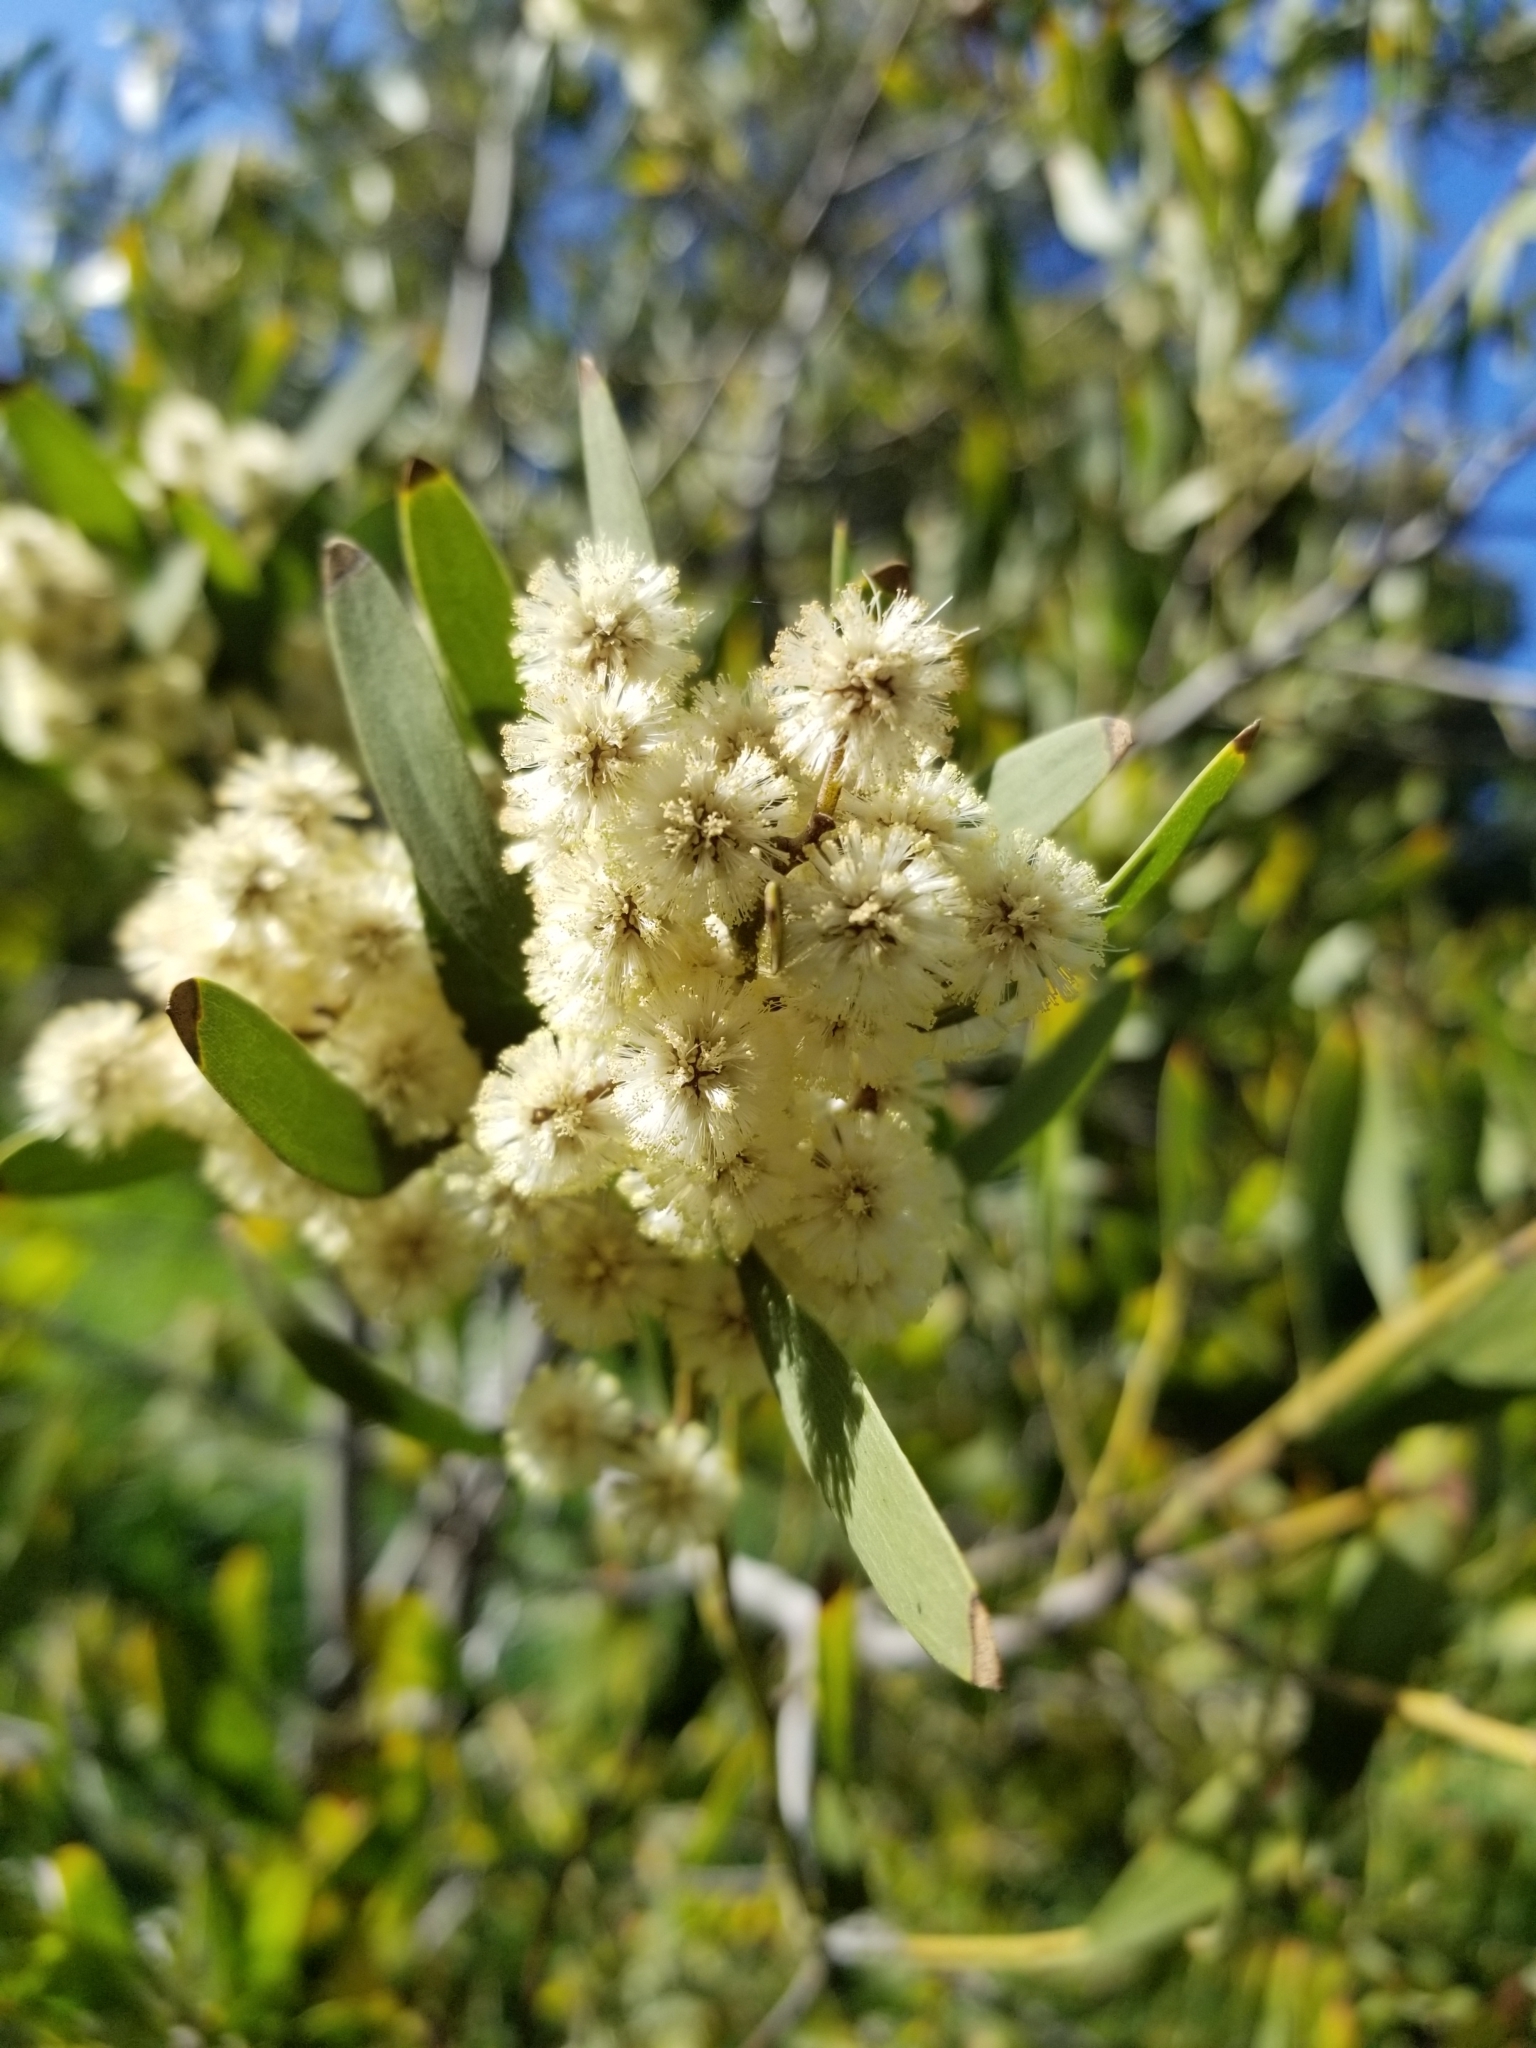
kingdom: Plantae
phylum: Tracheophyta
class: Magnoliopsida
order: Fabales
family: Fabaceae
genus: Acacia
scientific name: Acacia melanoxylon
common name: Blackwood
